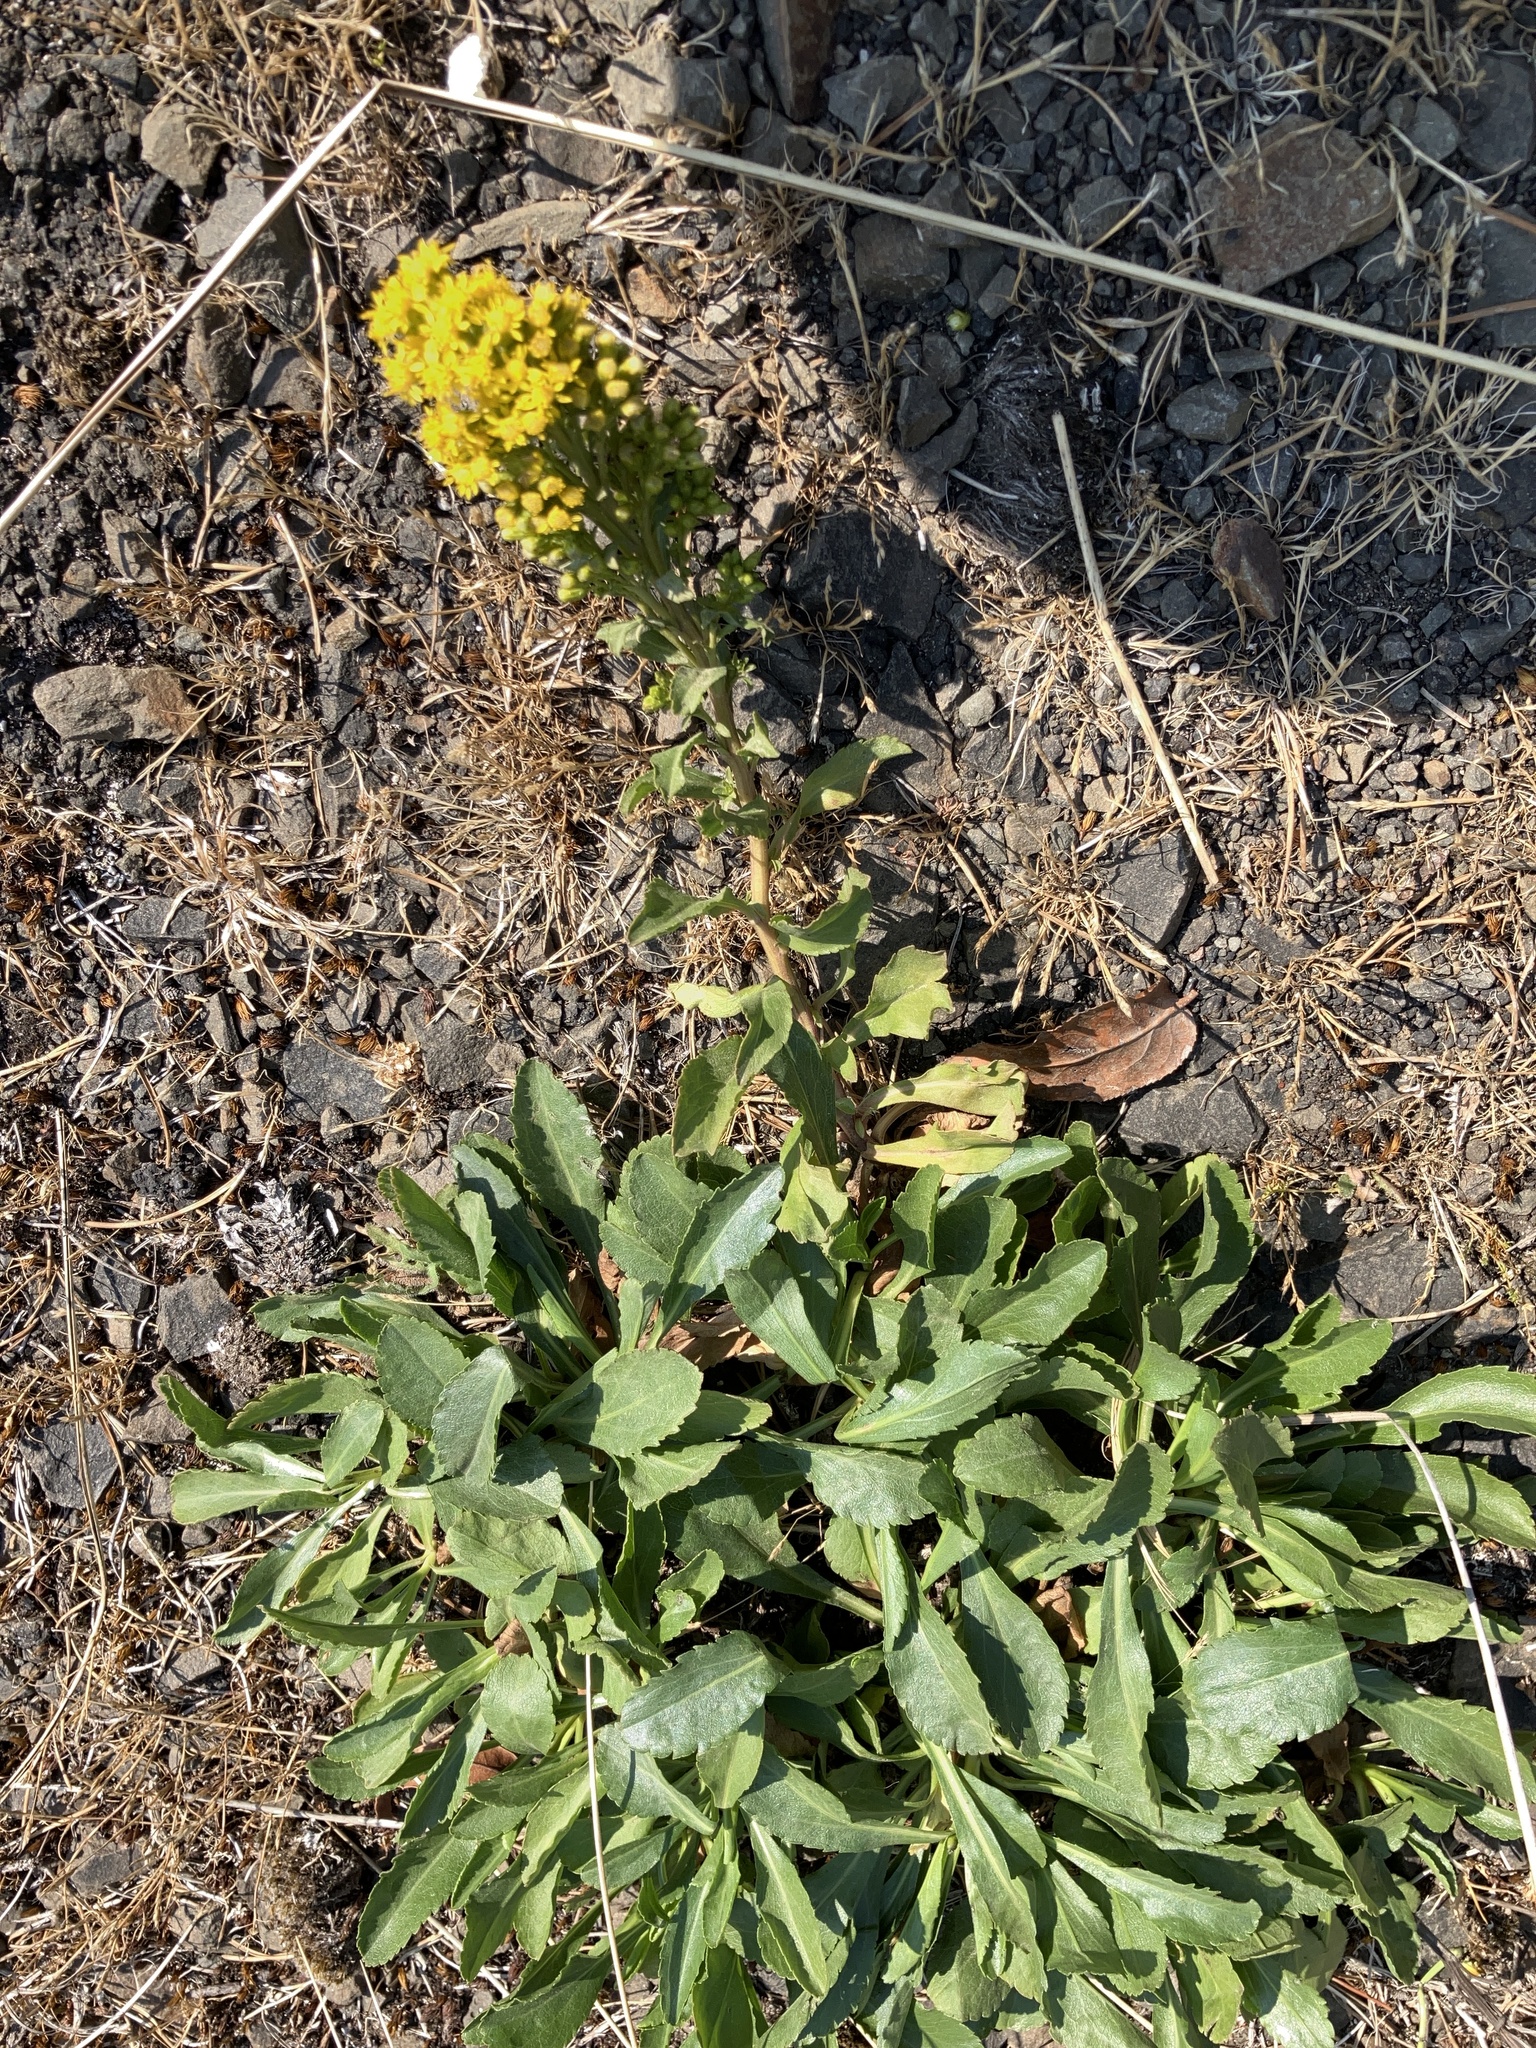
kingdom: Plantae
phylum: Tracheophyta
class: Magnoliopsida
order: Asterales
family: Asteraceae
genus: Solidago
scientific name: Solidago spathulata
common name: Coast goldenrod
